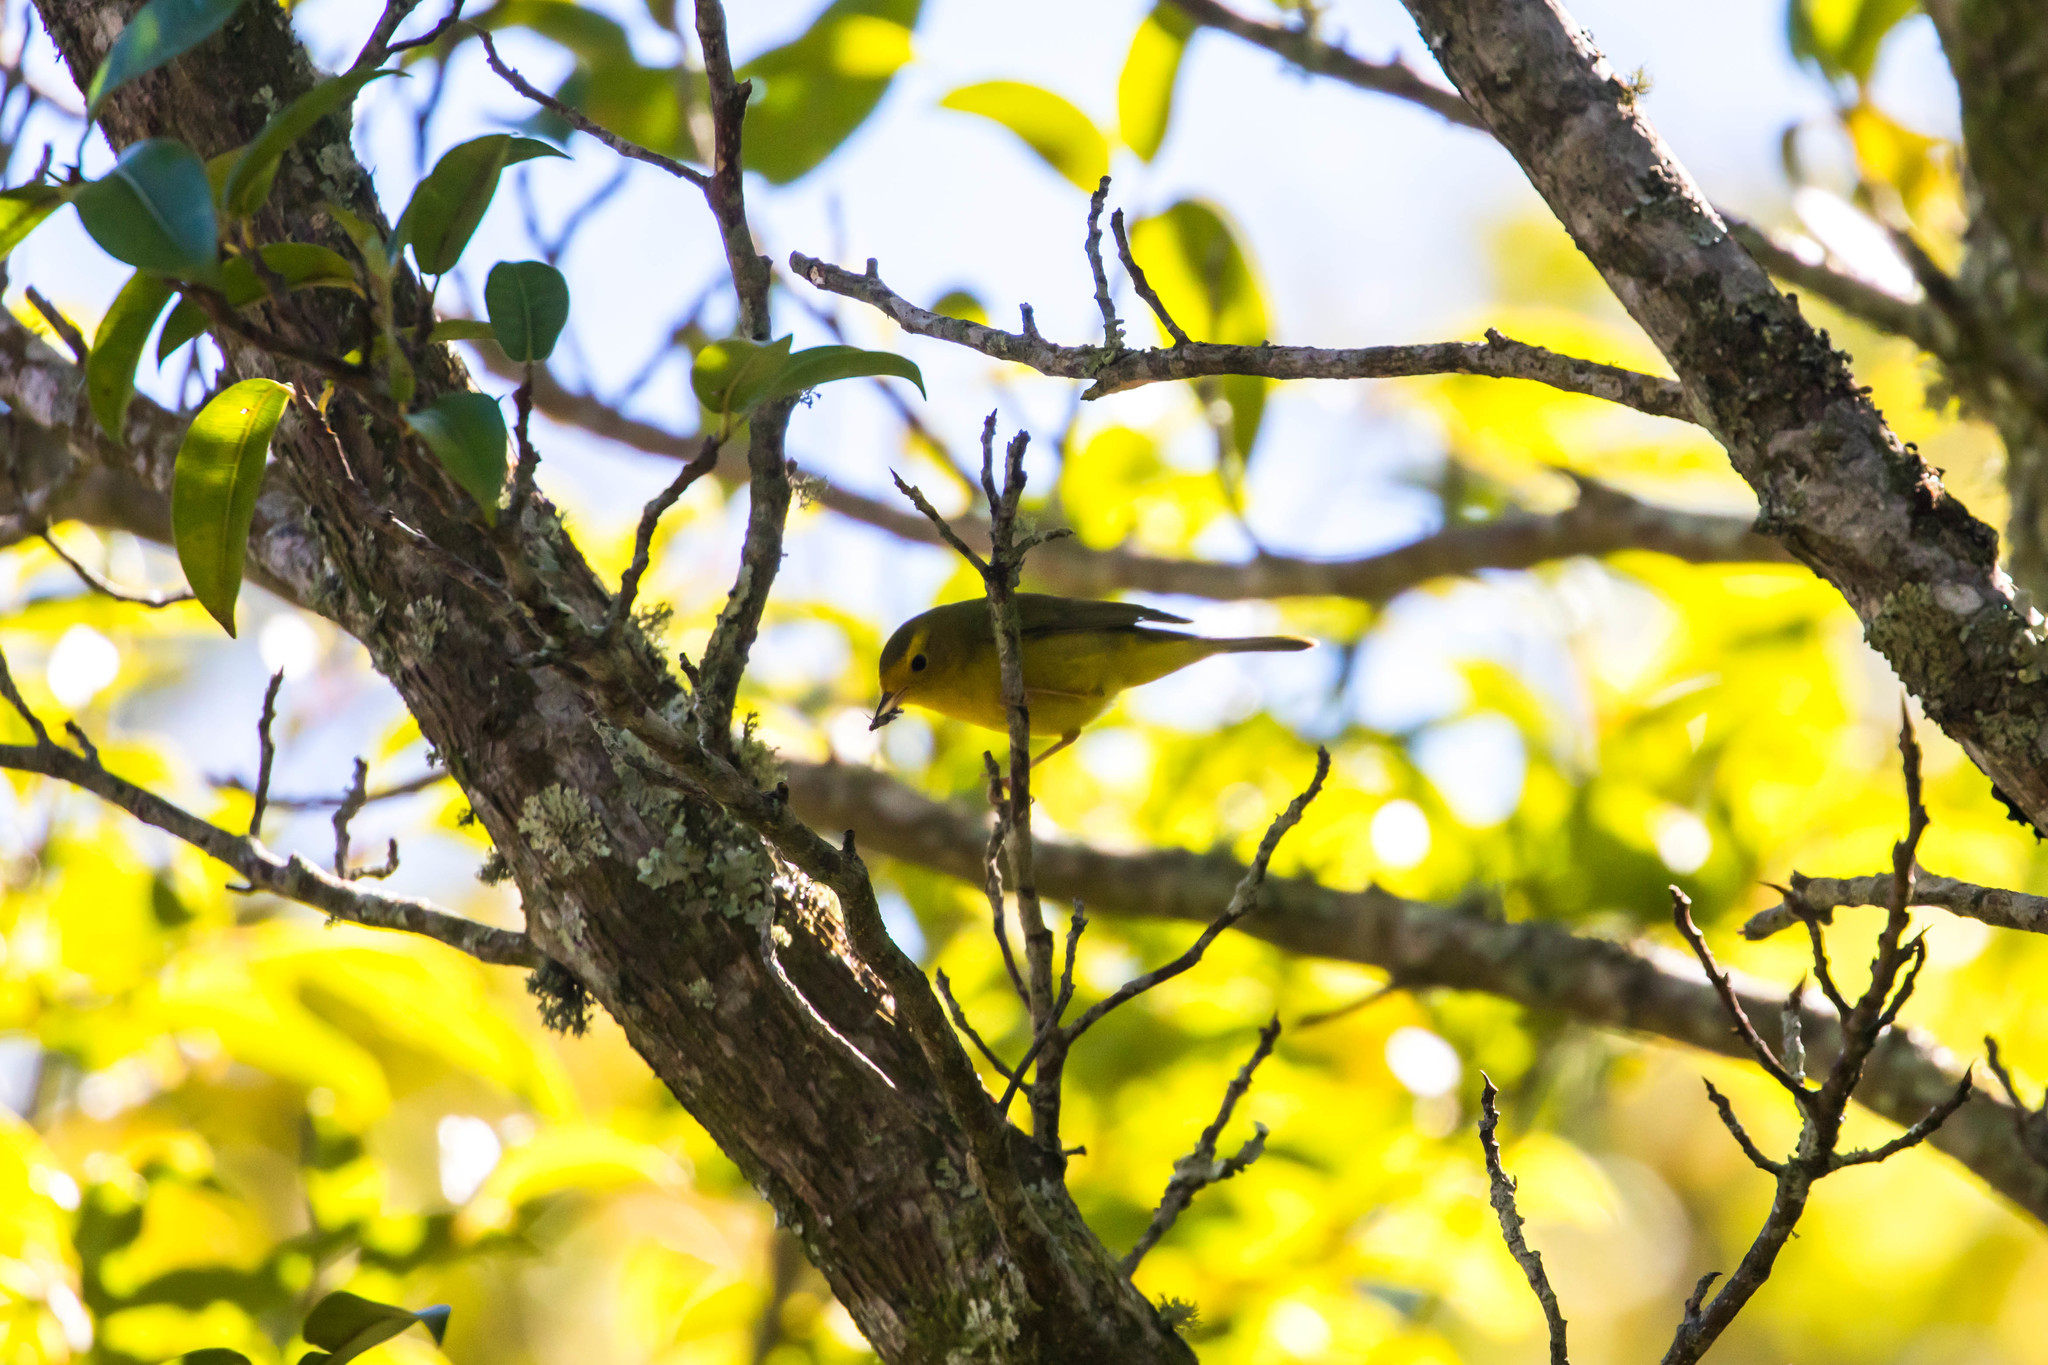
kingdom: Animalia
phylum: Chordata
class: Aves
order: Passeriformes
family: Parulidae
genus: Cardellina
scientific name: Cardellina pusilla
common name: Wilson's warbler
